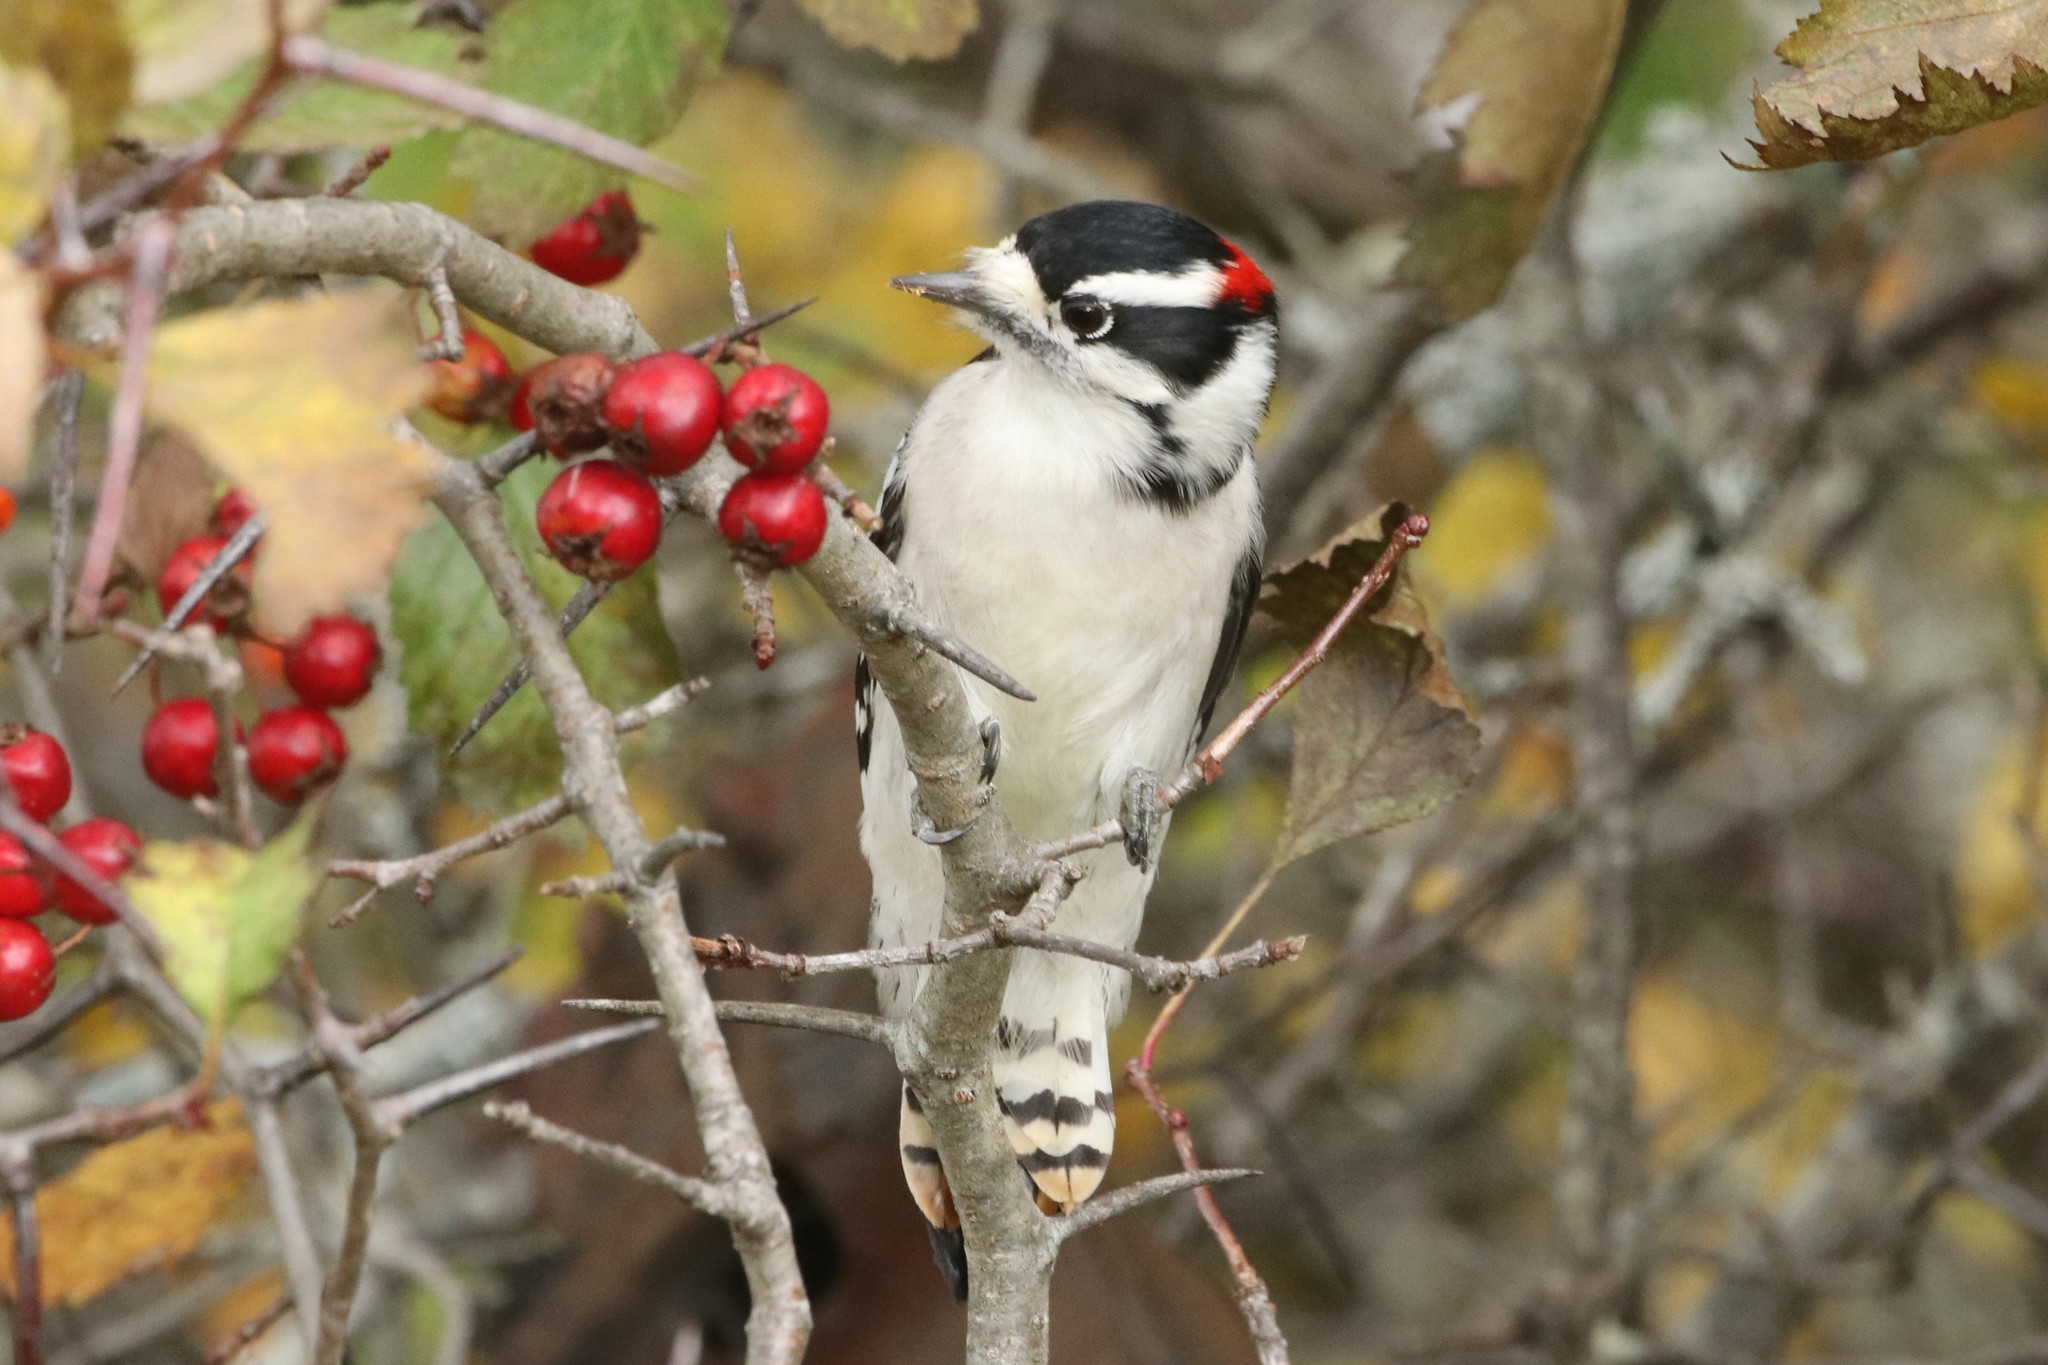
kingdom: Animalia
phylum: Chordata
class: Aves
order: Piciformes
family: Picidae
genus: Dryobates
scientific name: Dryobates pubescens
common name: Downy woodpecker
